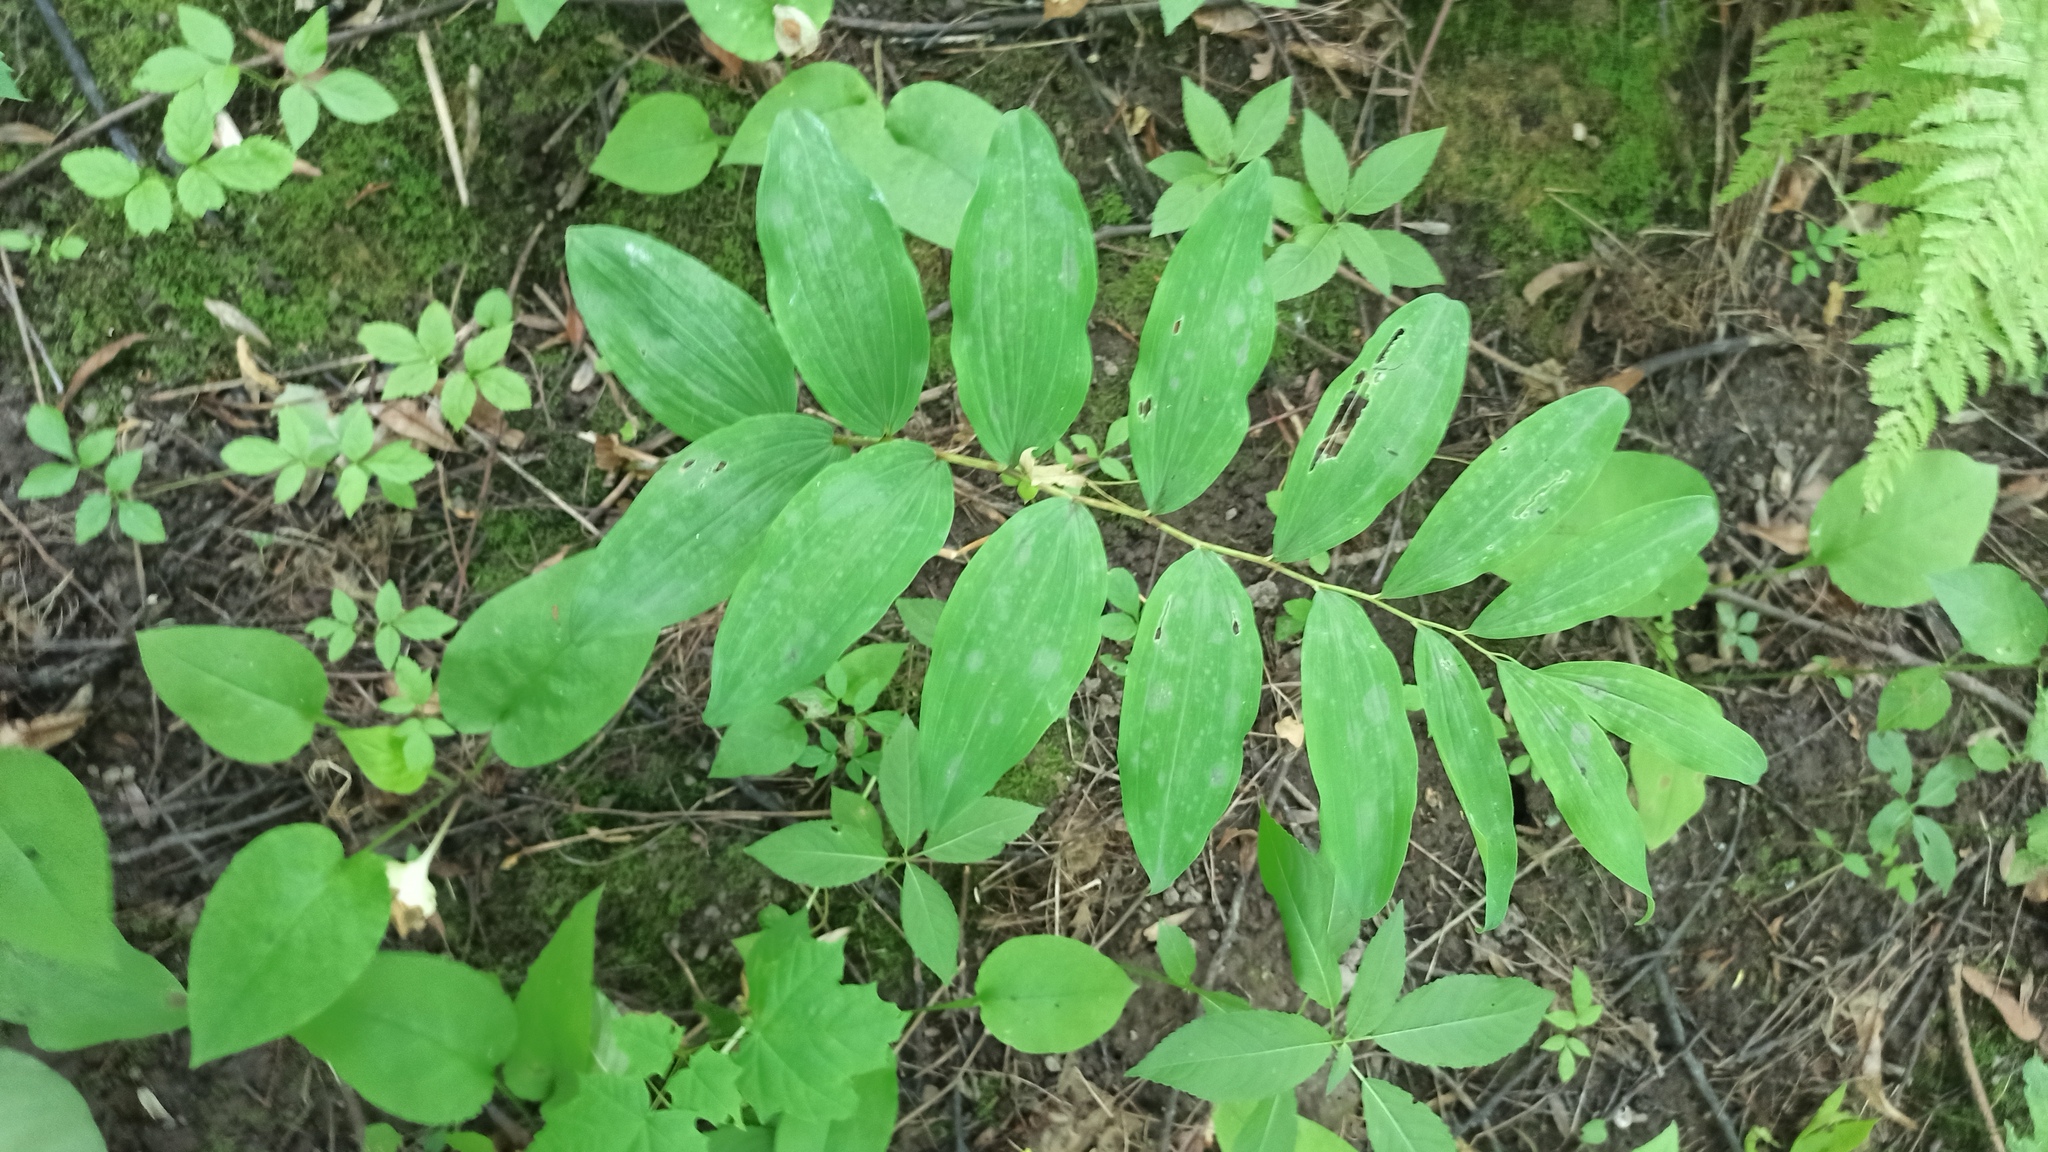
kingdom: Plantae
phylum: Tracheophyta
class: Liliopsida
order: Asparagales
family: Asparagaceae
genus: Polygonatum
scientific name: Polygonatum multiflorum
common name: Solomon's-seal
